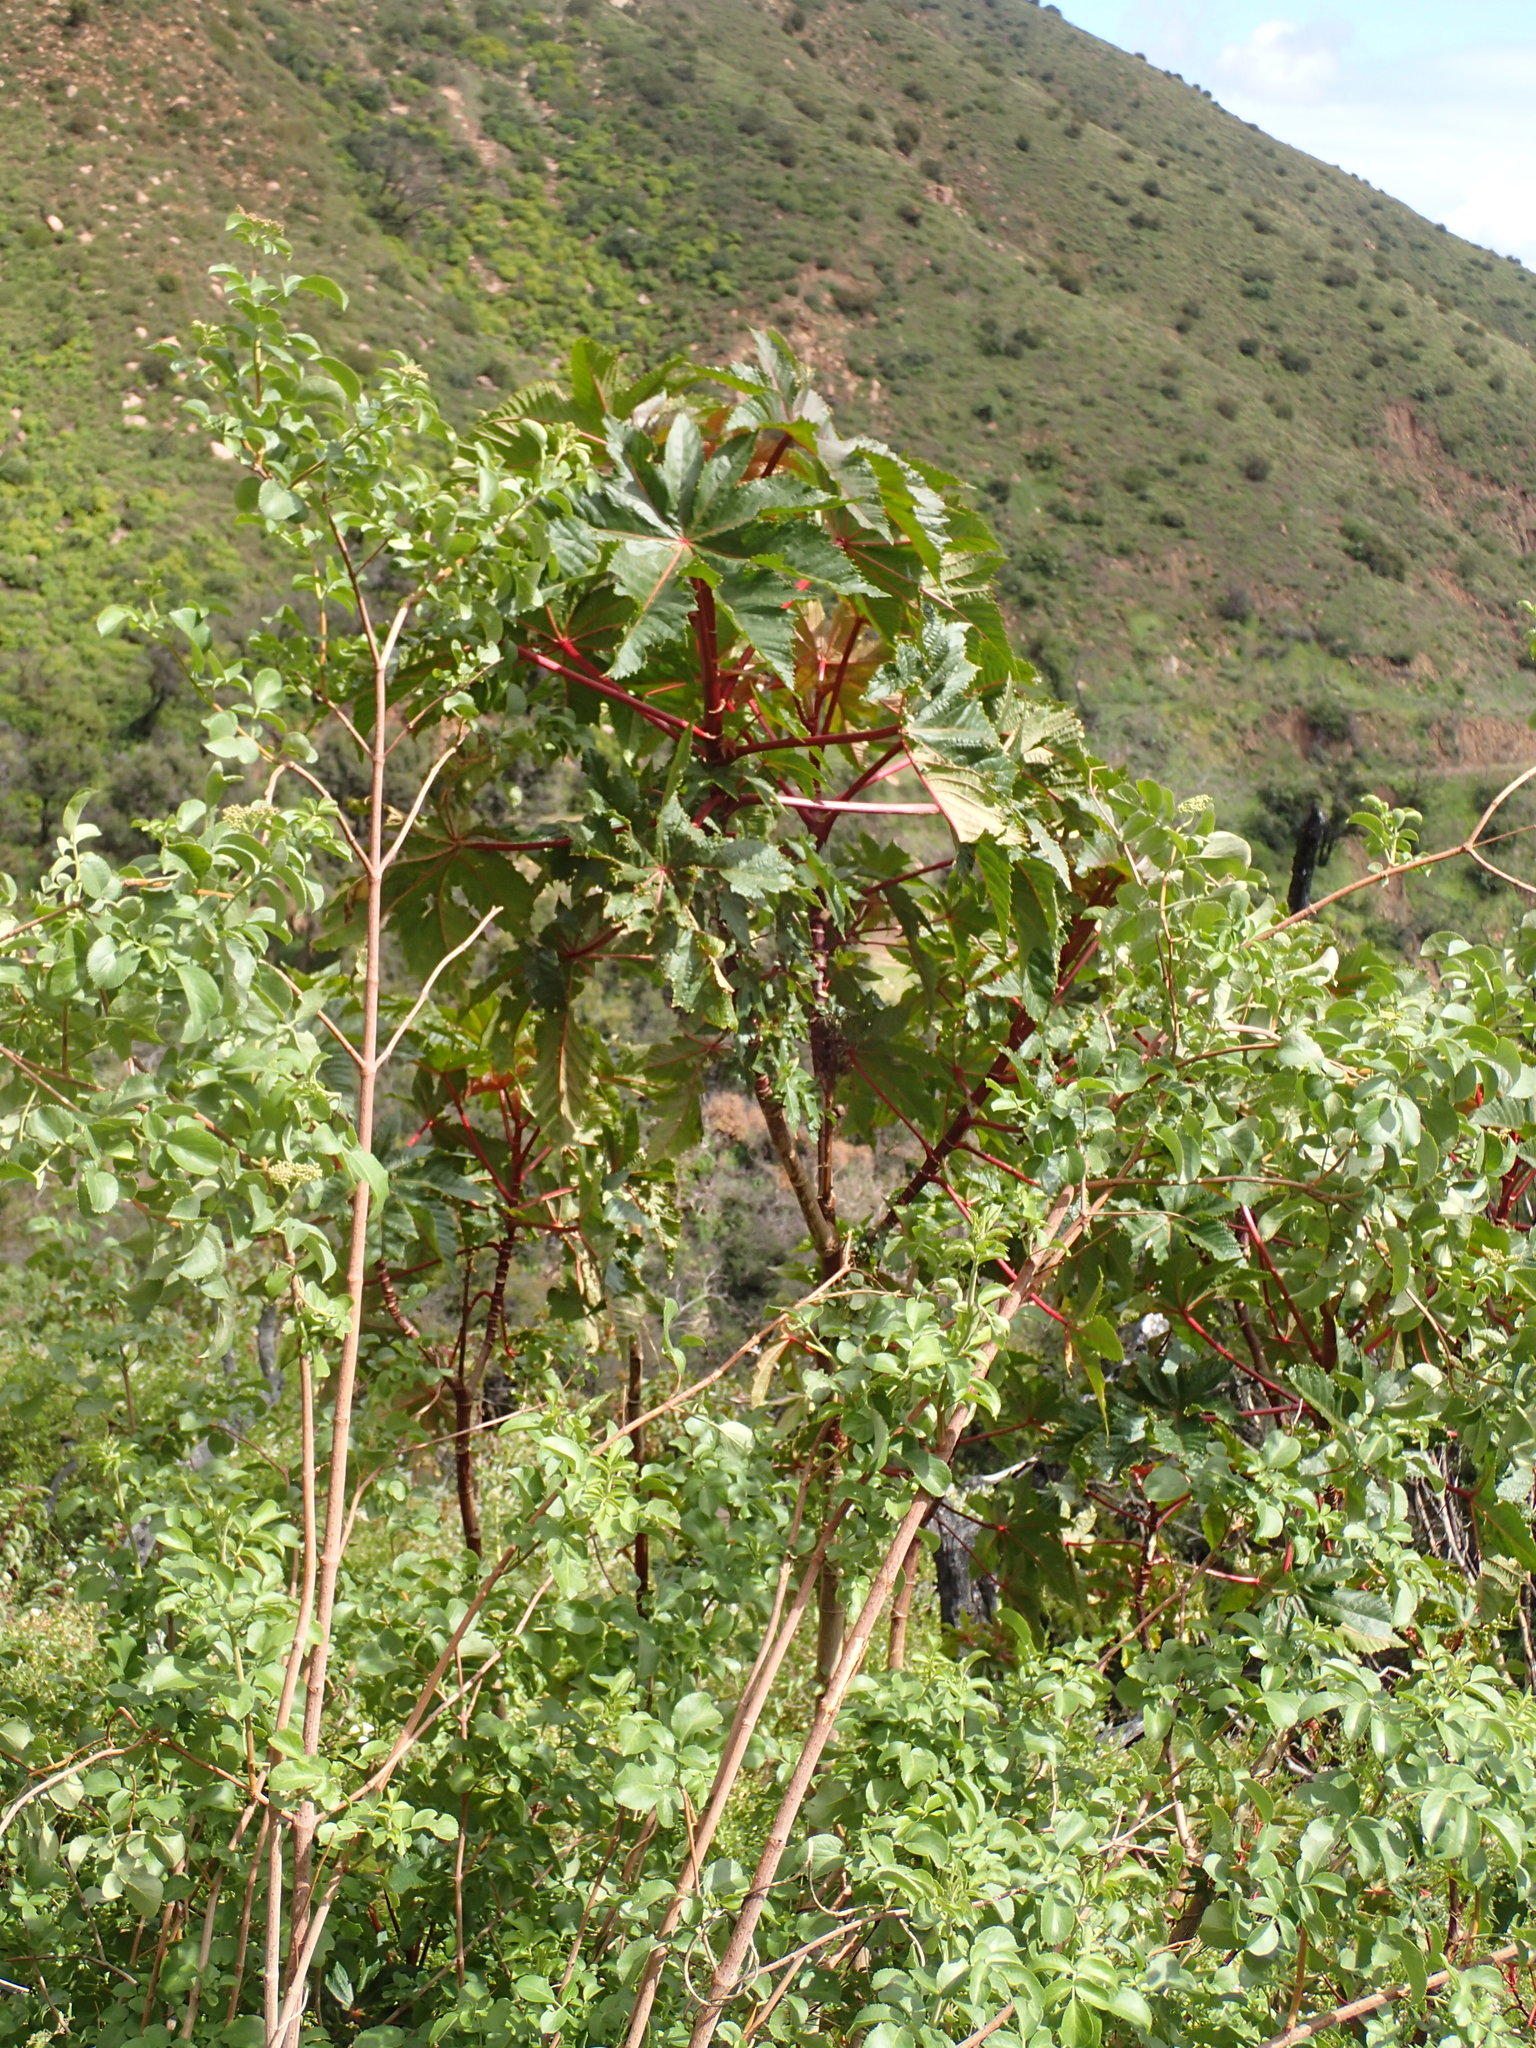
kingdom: Plantae
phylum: Tracheophyta
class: Magnoliopsida
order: Malpighiales
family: Euphorbiaceae
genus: Ricinus
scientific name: Ricinus communis
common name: Castor-oil-plant
